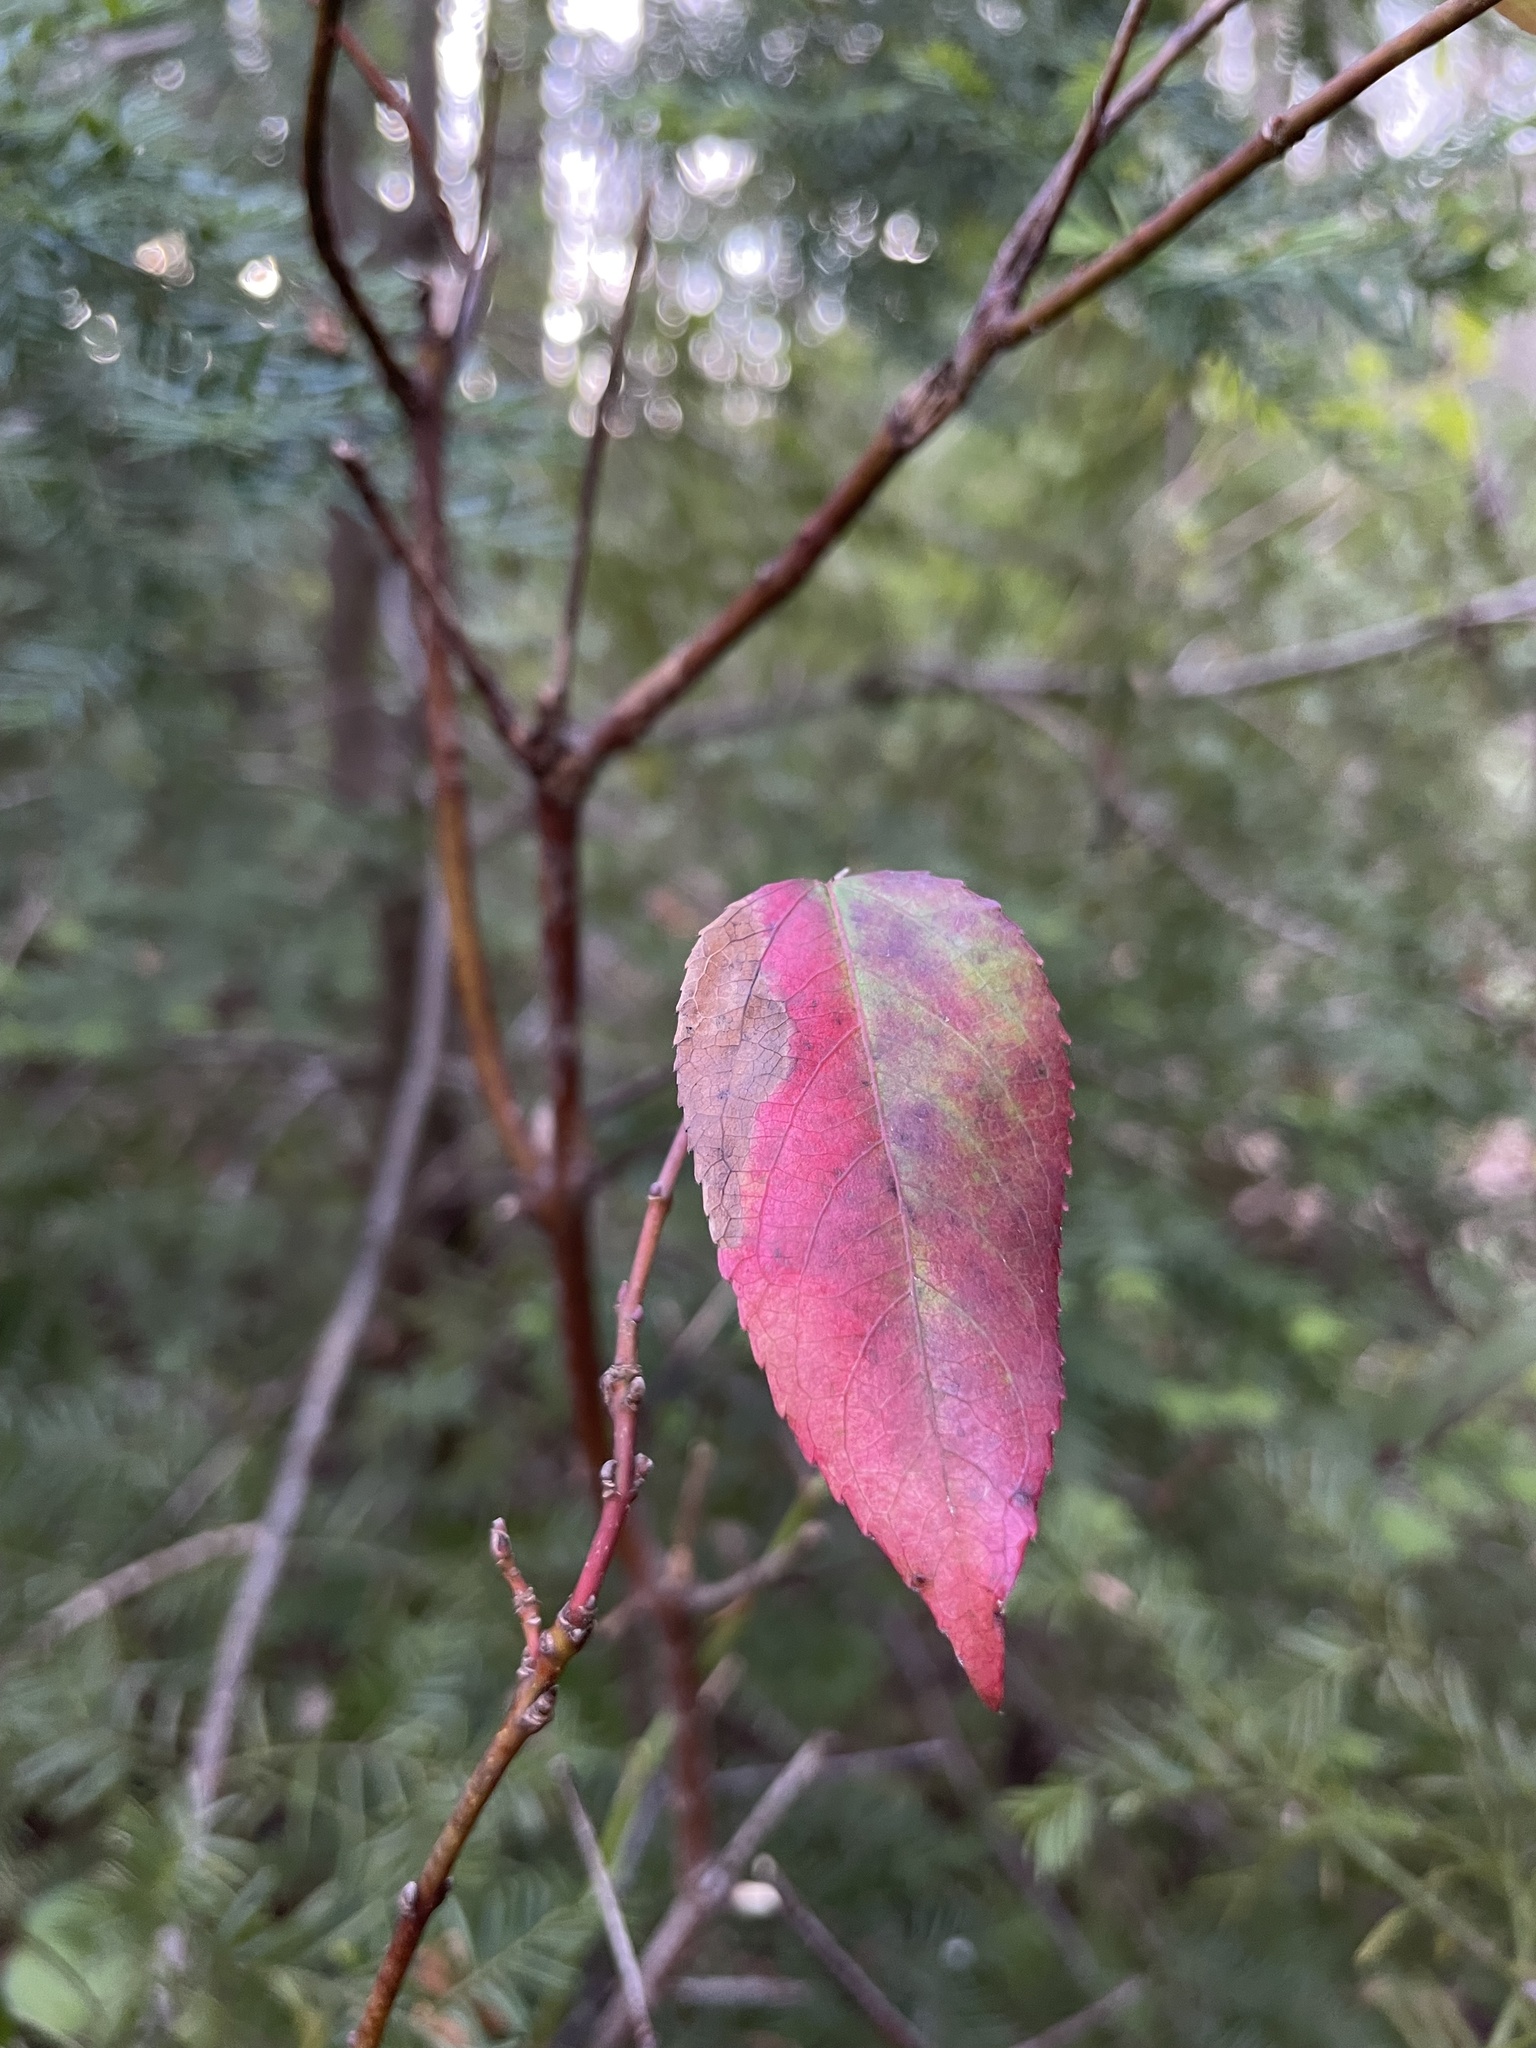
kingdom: Plantae
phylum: Tracheophyta
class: Magnoliopsida
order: Oxalidales
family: Elaeocarpaceae
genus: Aristotelia
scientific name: Aristotelia chilensis
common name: Maquei
